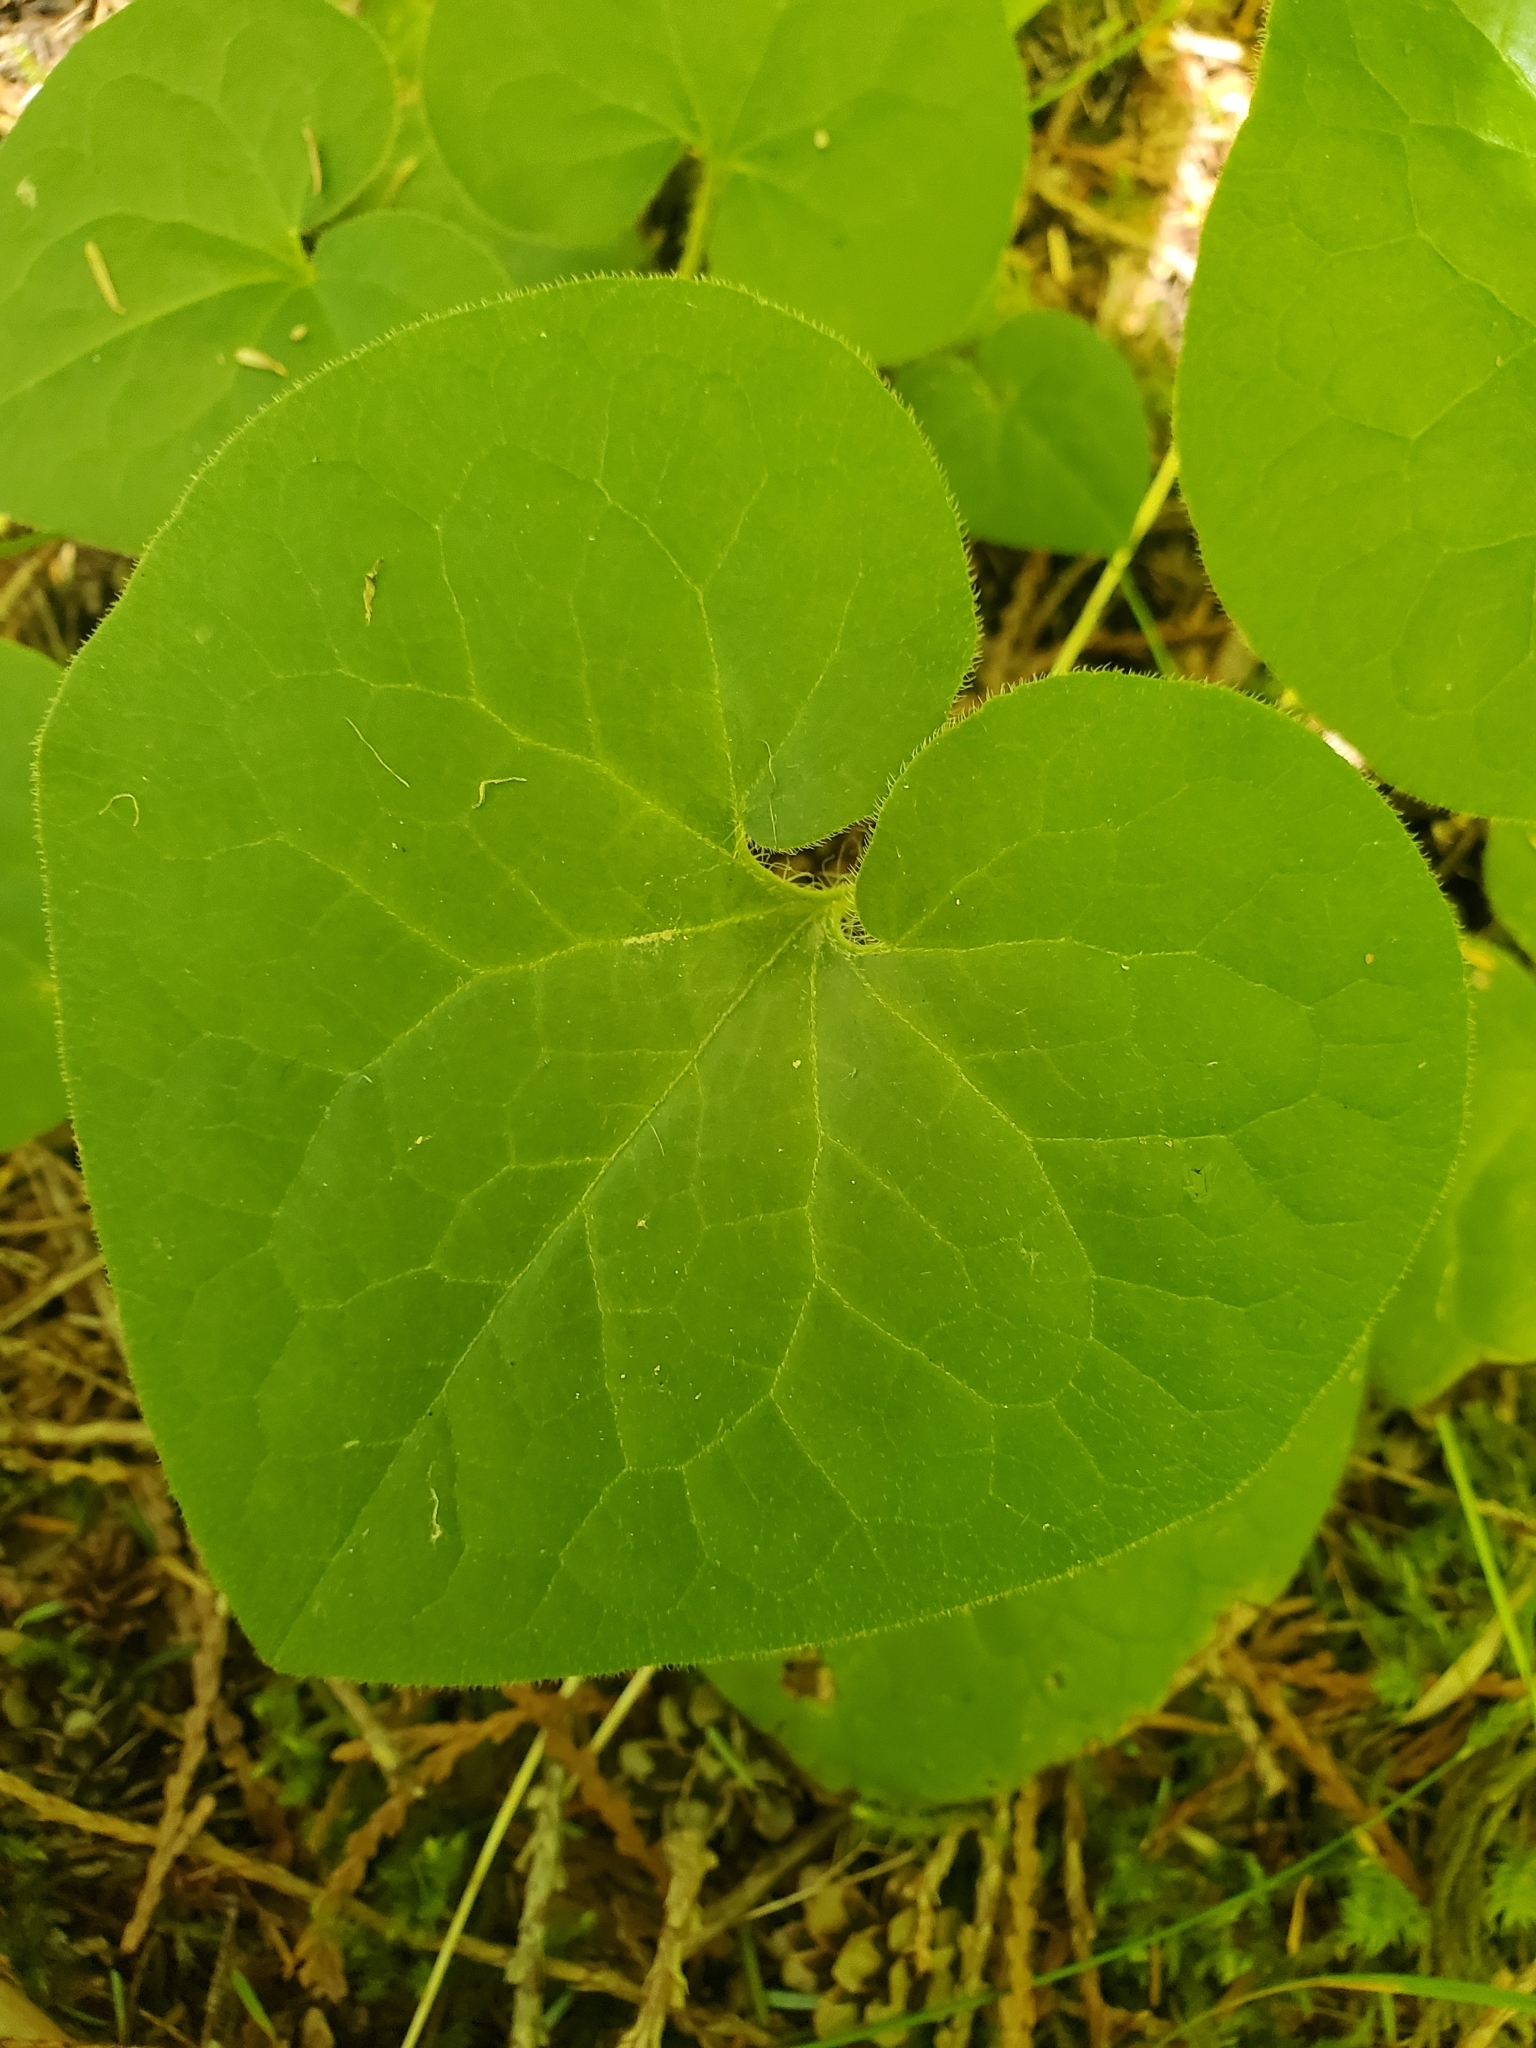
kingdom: Plantae
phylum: Tracheophyta
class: Magnoliopsida
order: Piperales
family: Aristolochiaceae
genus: Asarum
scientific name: Asarum caudatum
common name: Wild ginger
